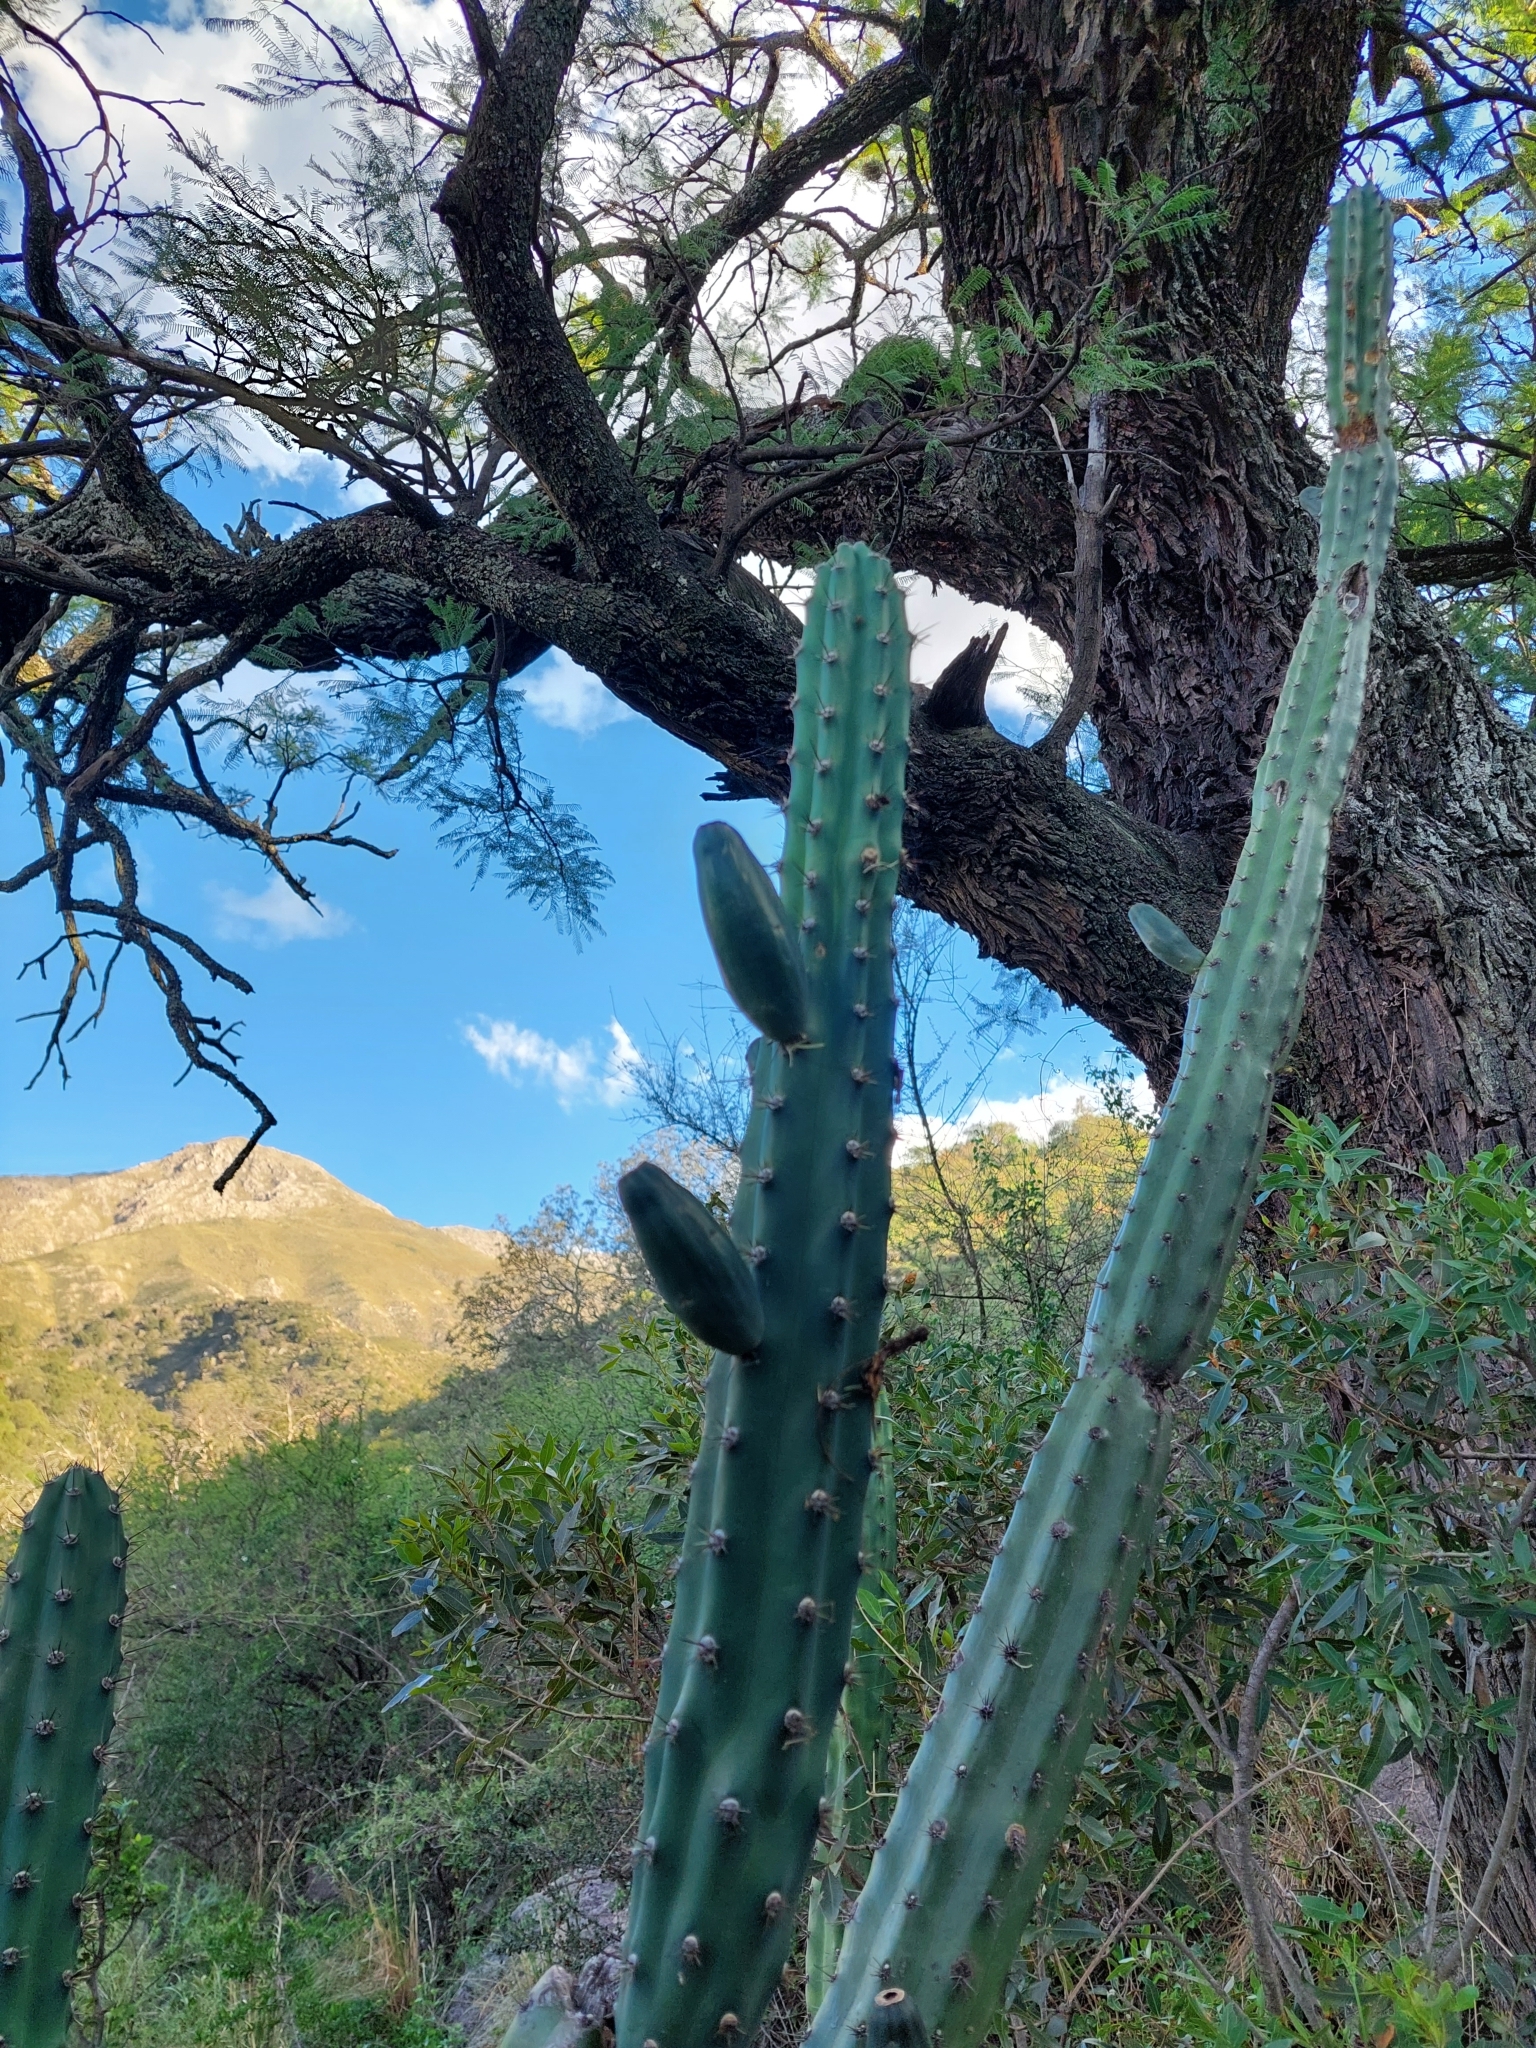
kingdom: Plantae
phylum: Tracheophyta
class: Magnoliopsida
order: Caryophyllales
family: Cactaceae
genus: Cereus
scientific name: Cereus aethiops
